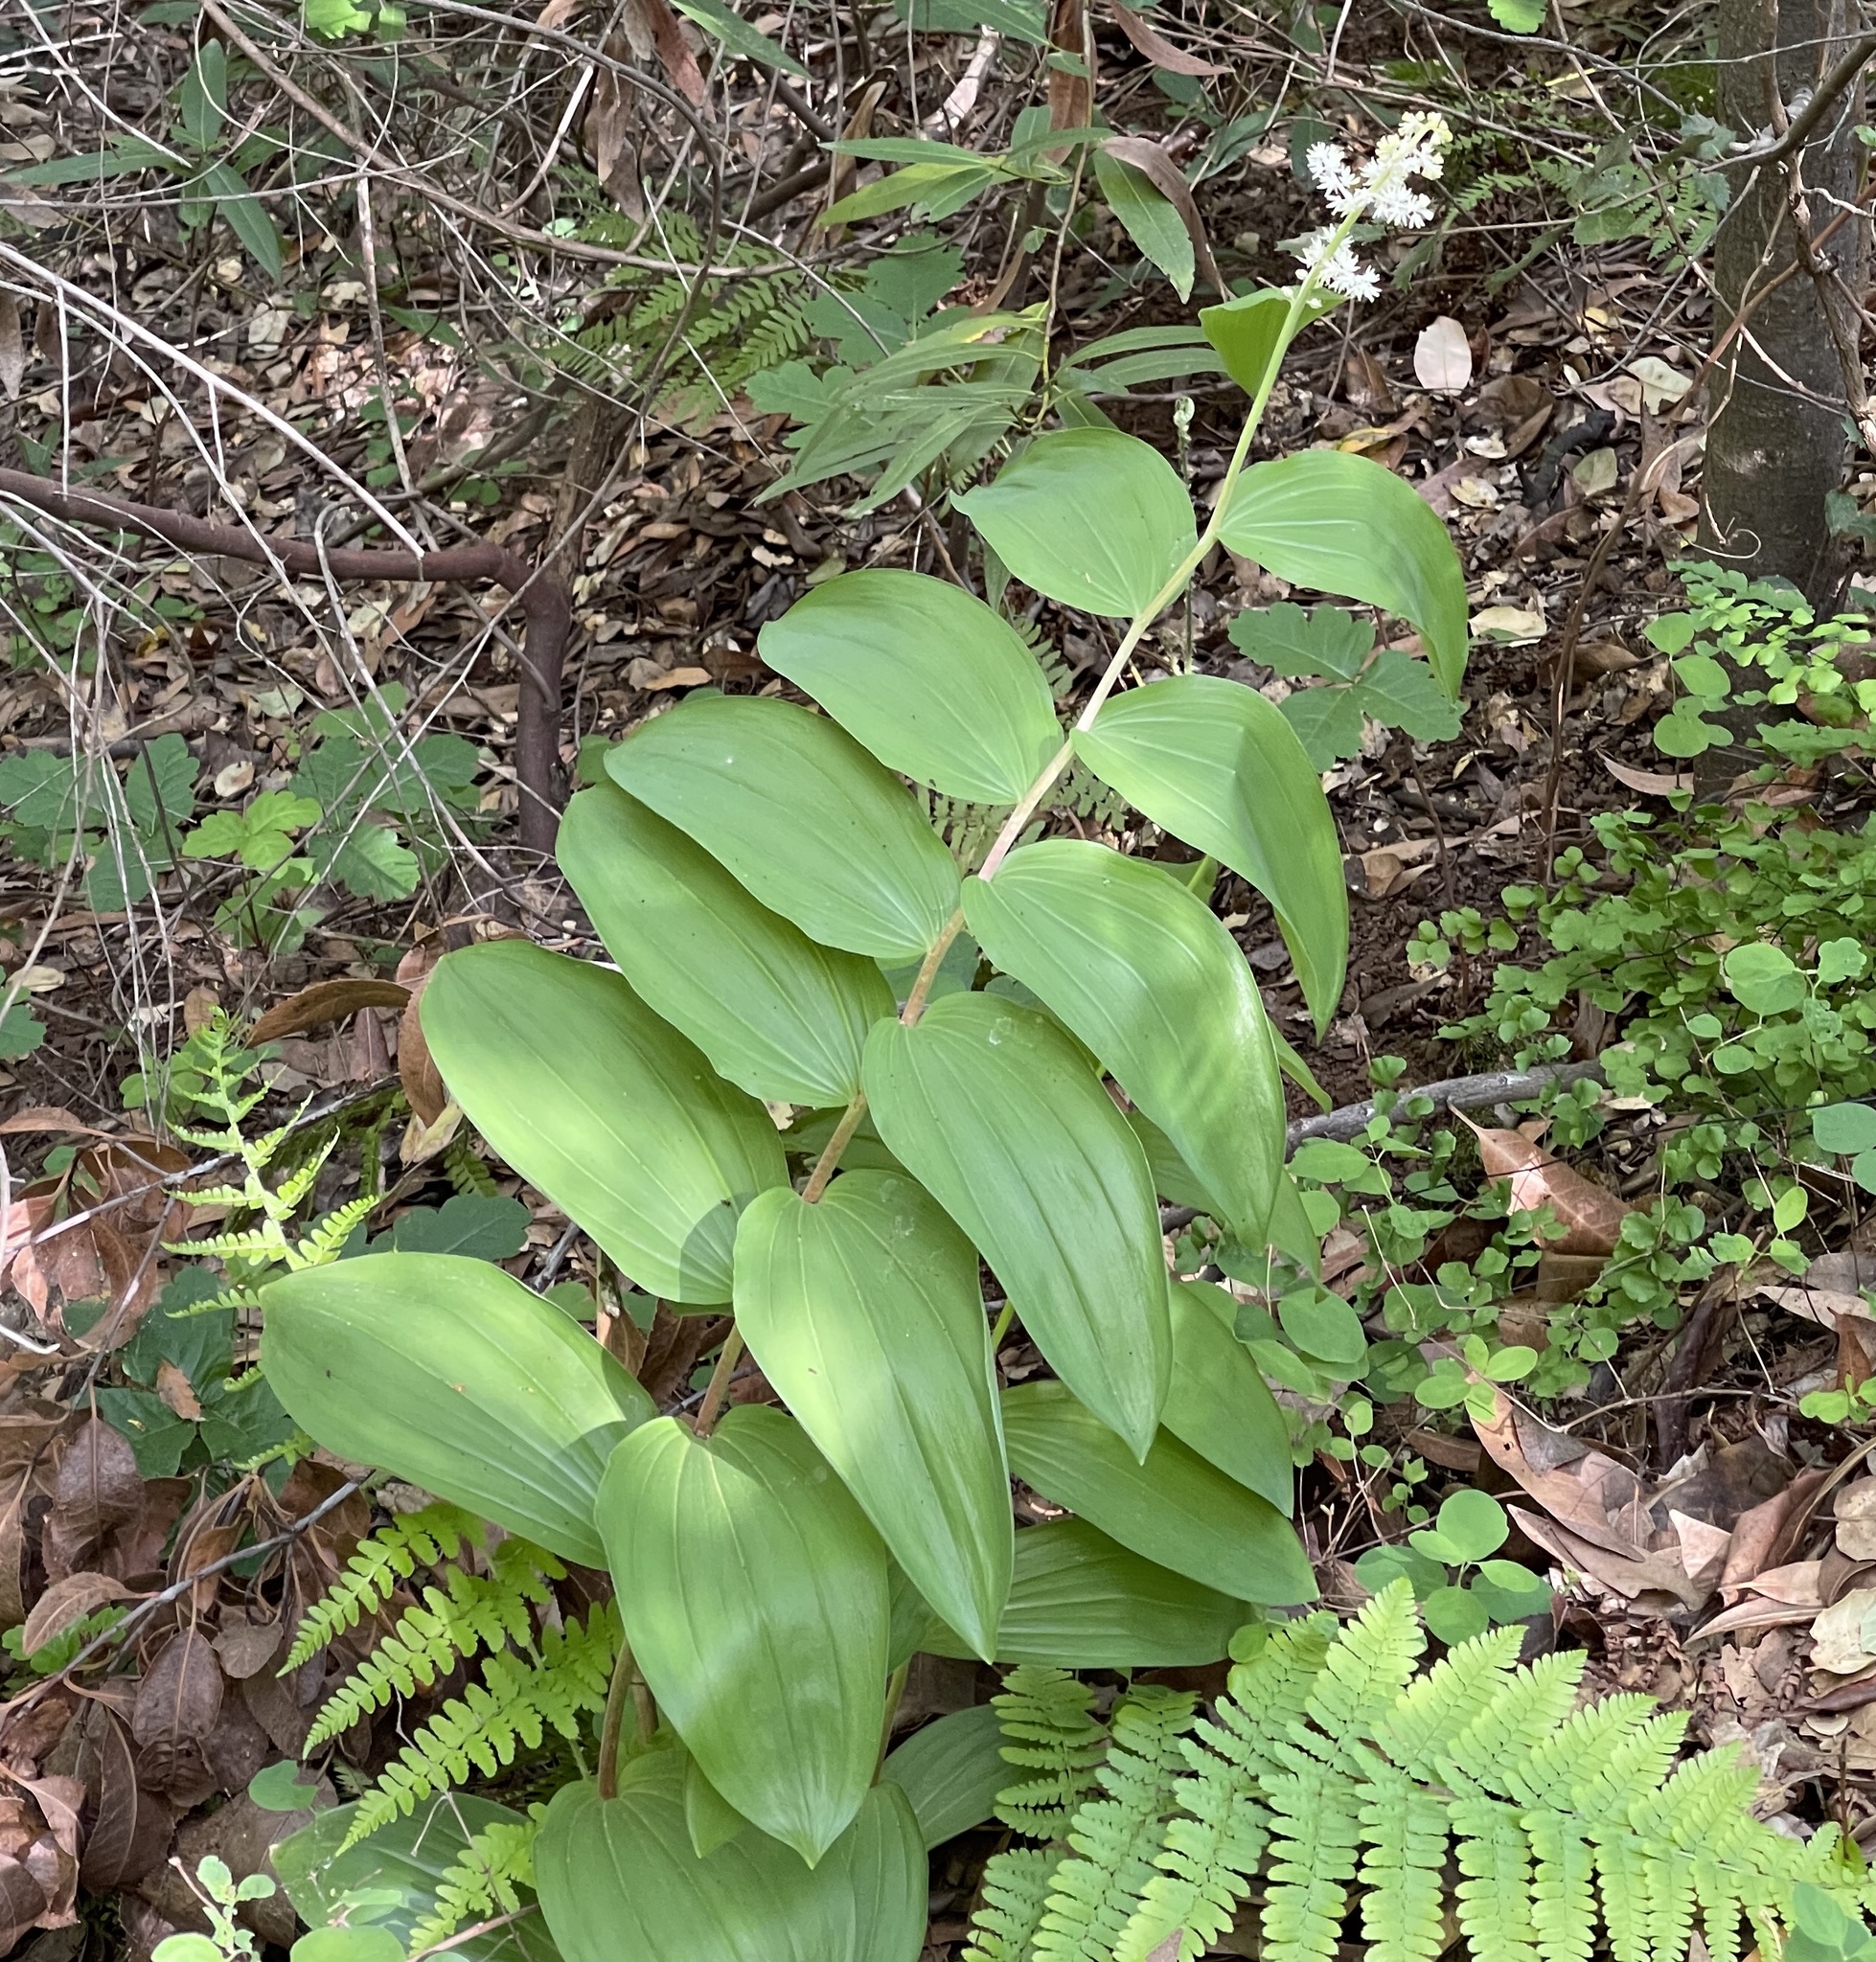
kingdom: Plantae
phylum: Tracheophyta
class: Liliopsida
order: Asparagales
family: Asparagaceae
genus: Maianthemum
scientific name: Maianthemum racemosum
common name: False spikenard
